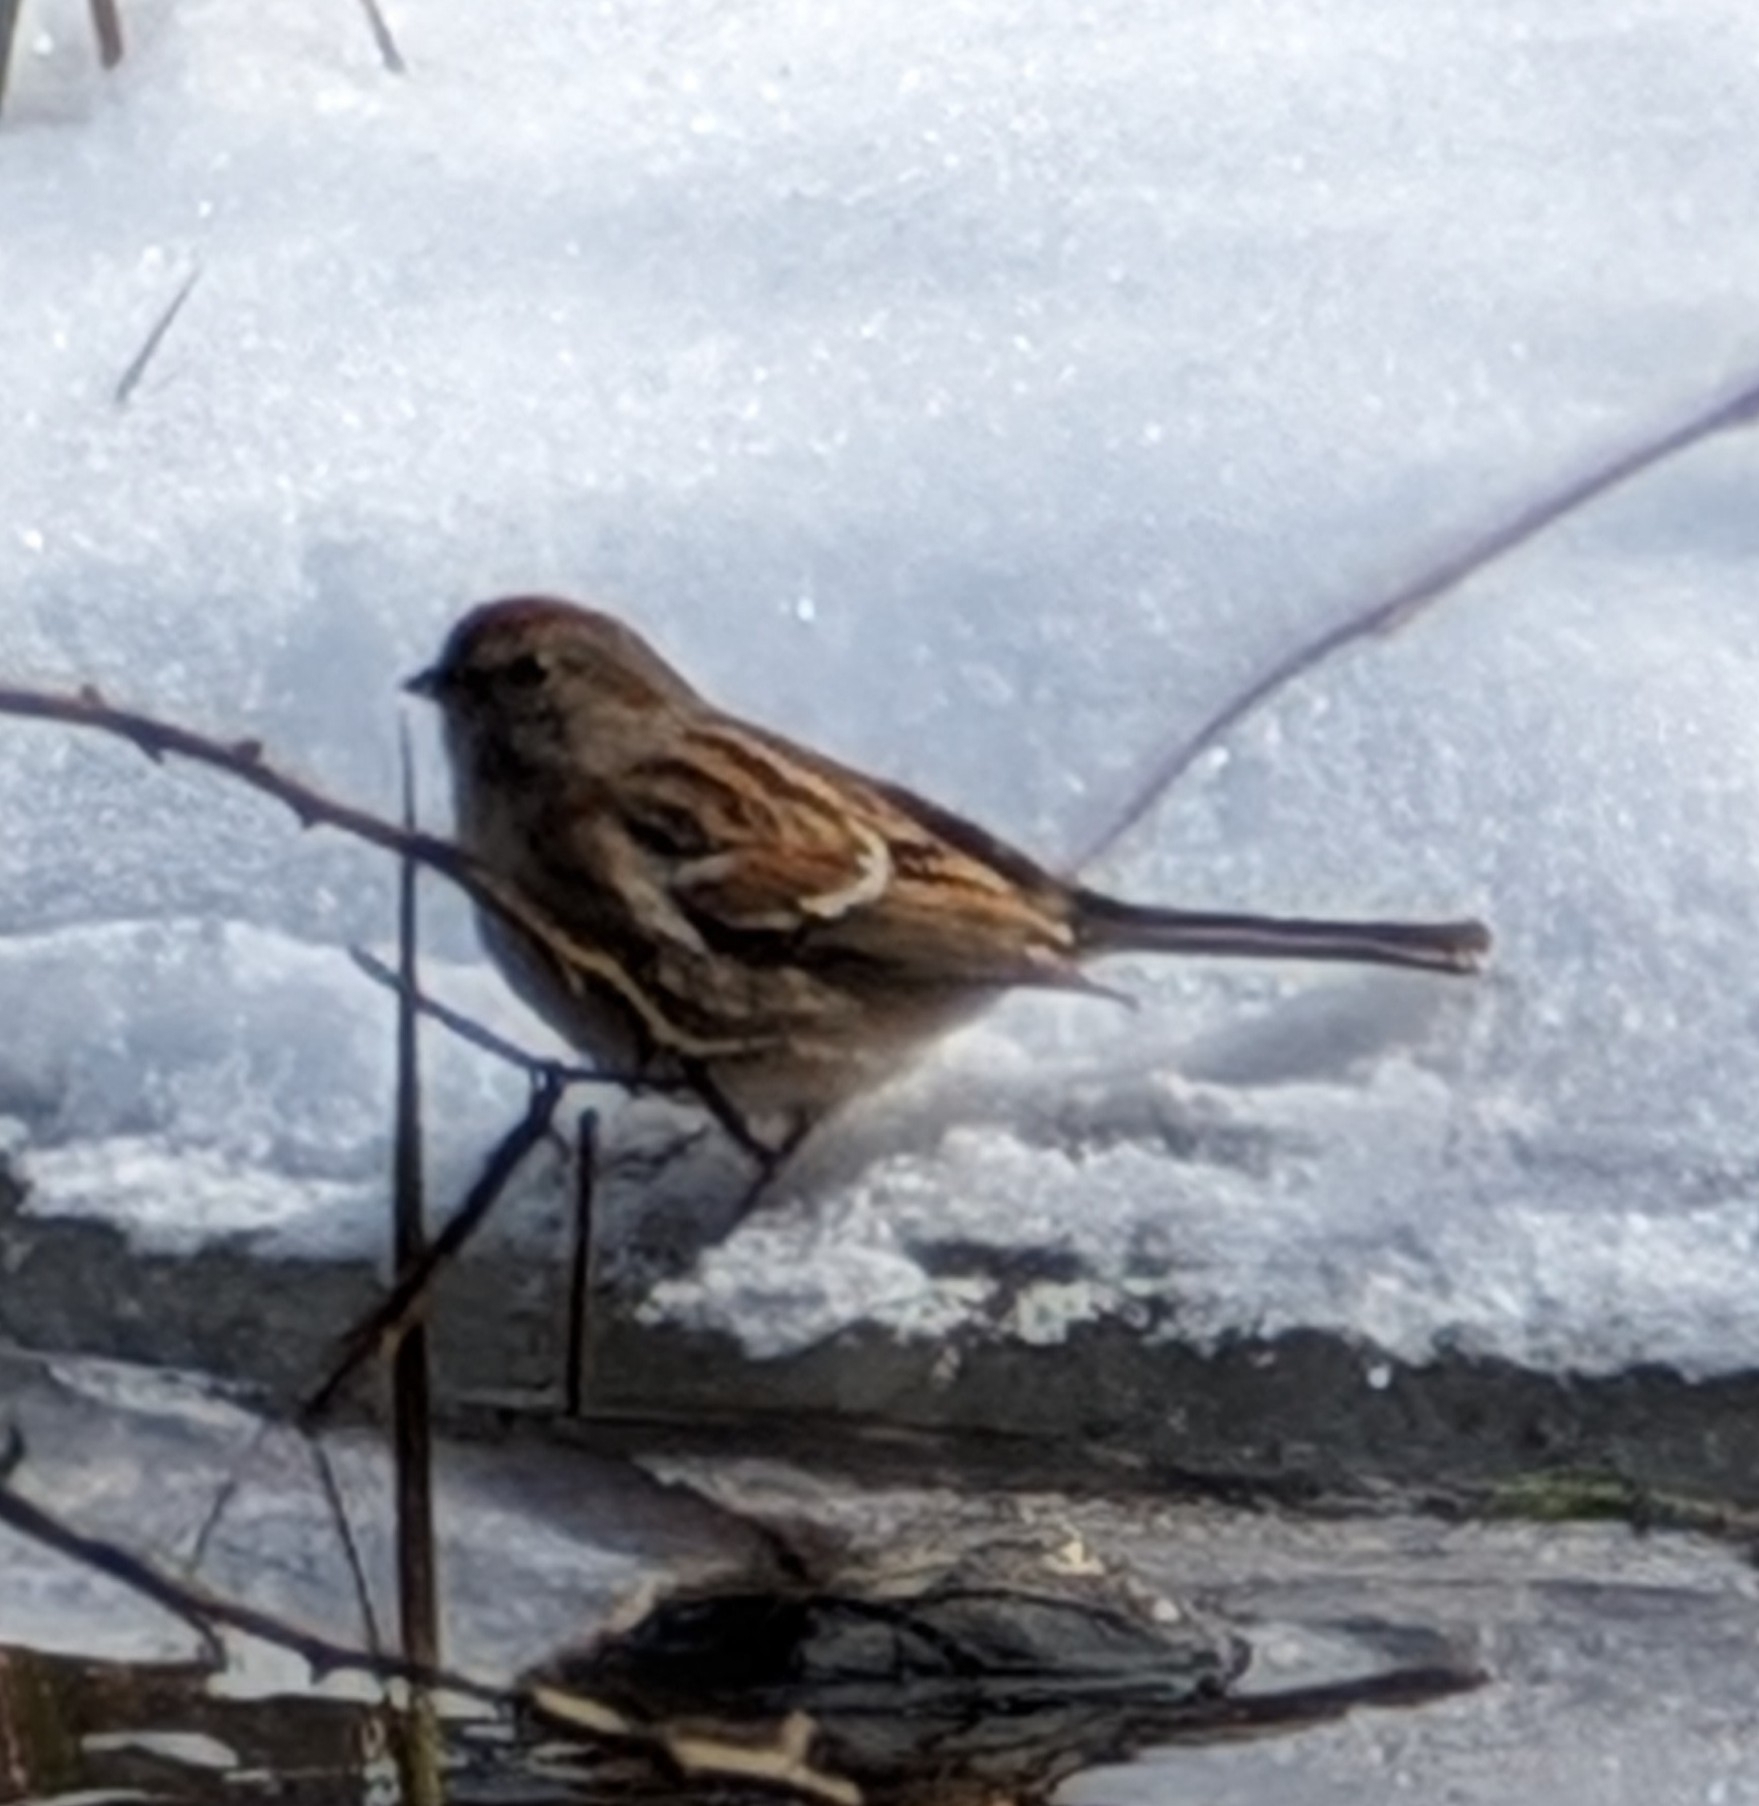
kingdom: Animalia
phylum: Chordata
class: Aves
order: Passeriformes
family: Passerellidae
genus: Spizelloides
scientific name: Spizelloides arborea
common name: American tree sparrow
